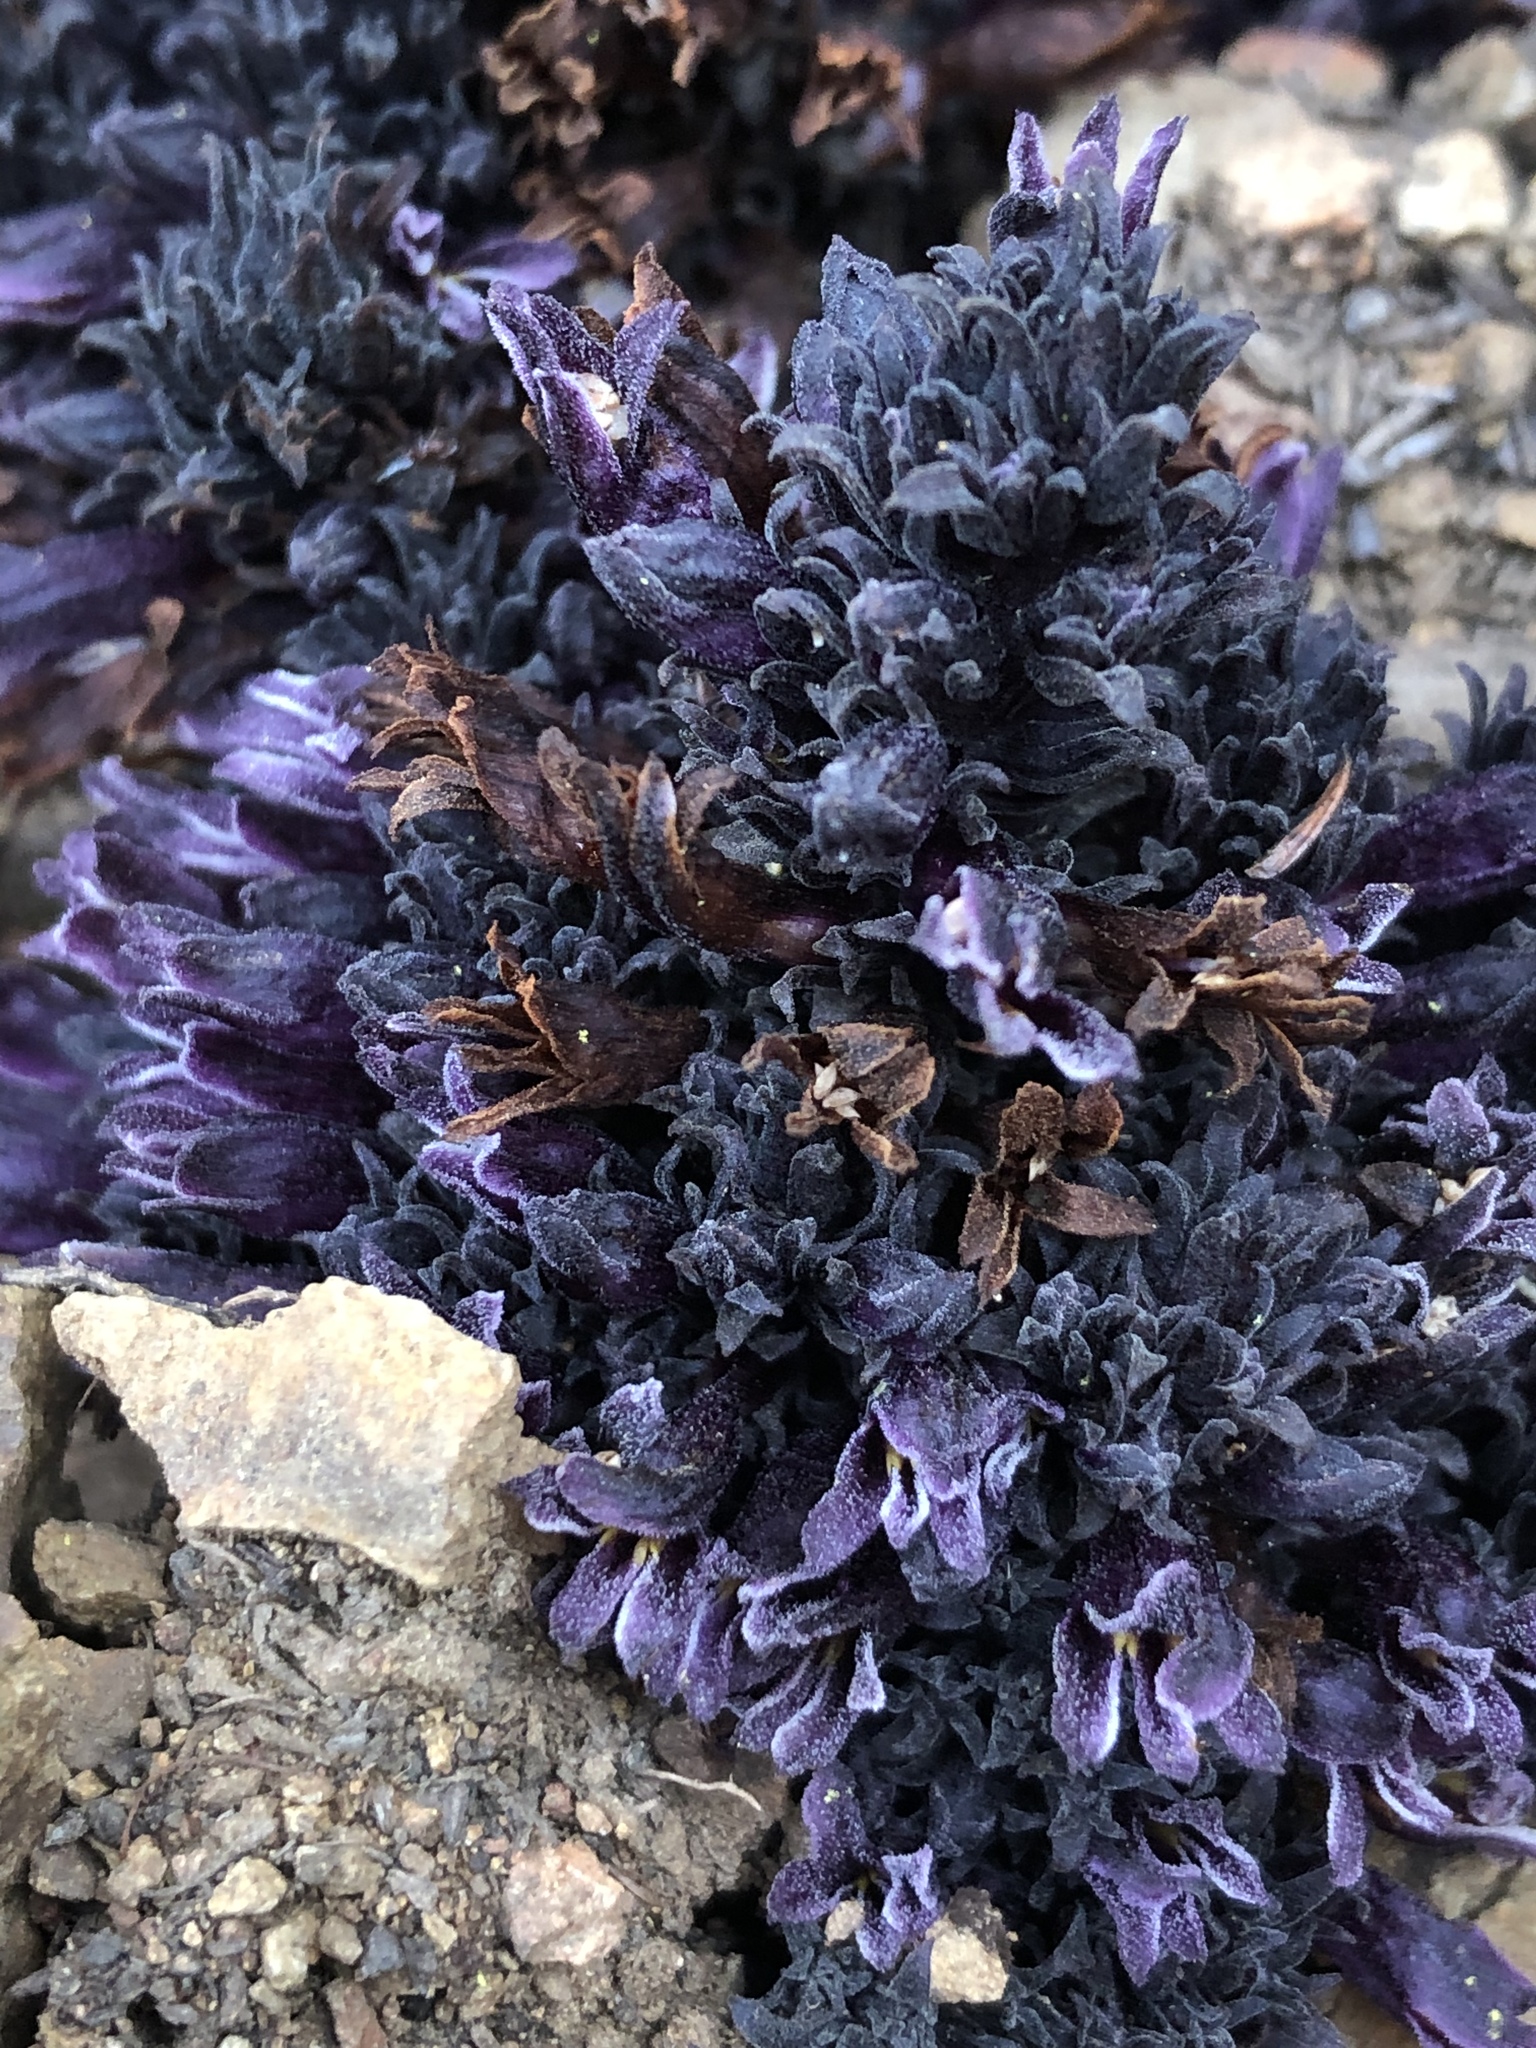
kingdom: Plantae
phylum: Tracheophyta
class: Magnoliopsida
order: Lamiales
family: Orobanchaceae
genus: Aphyllon
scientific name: Aphyllon tuberosum
